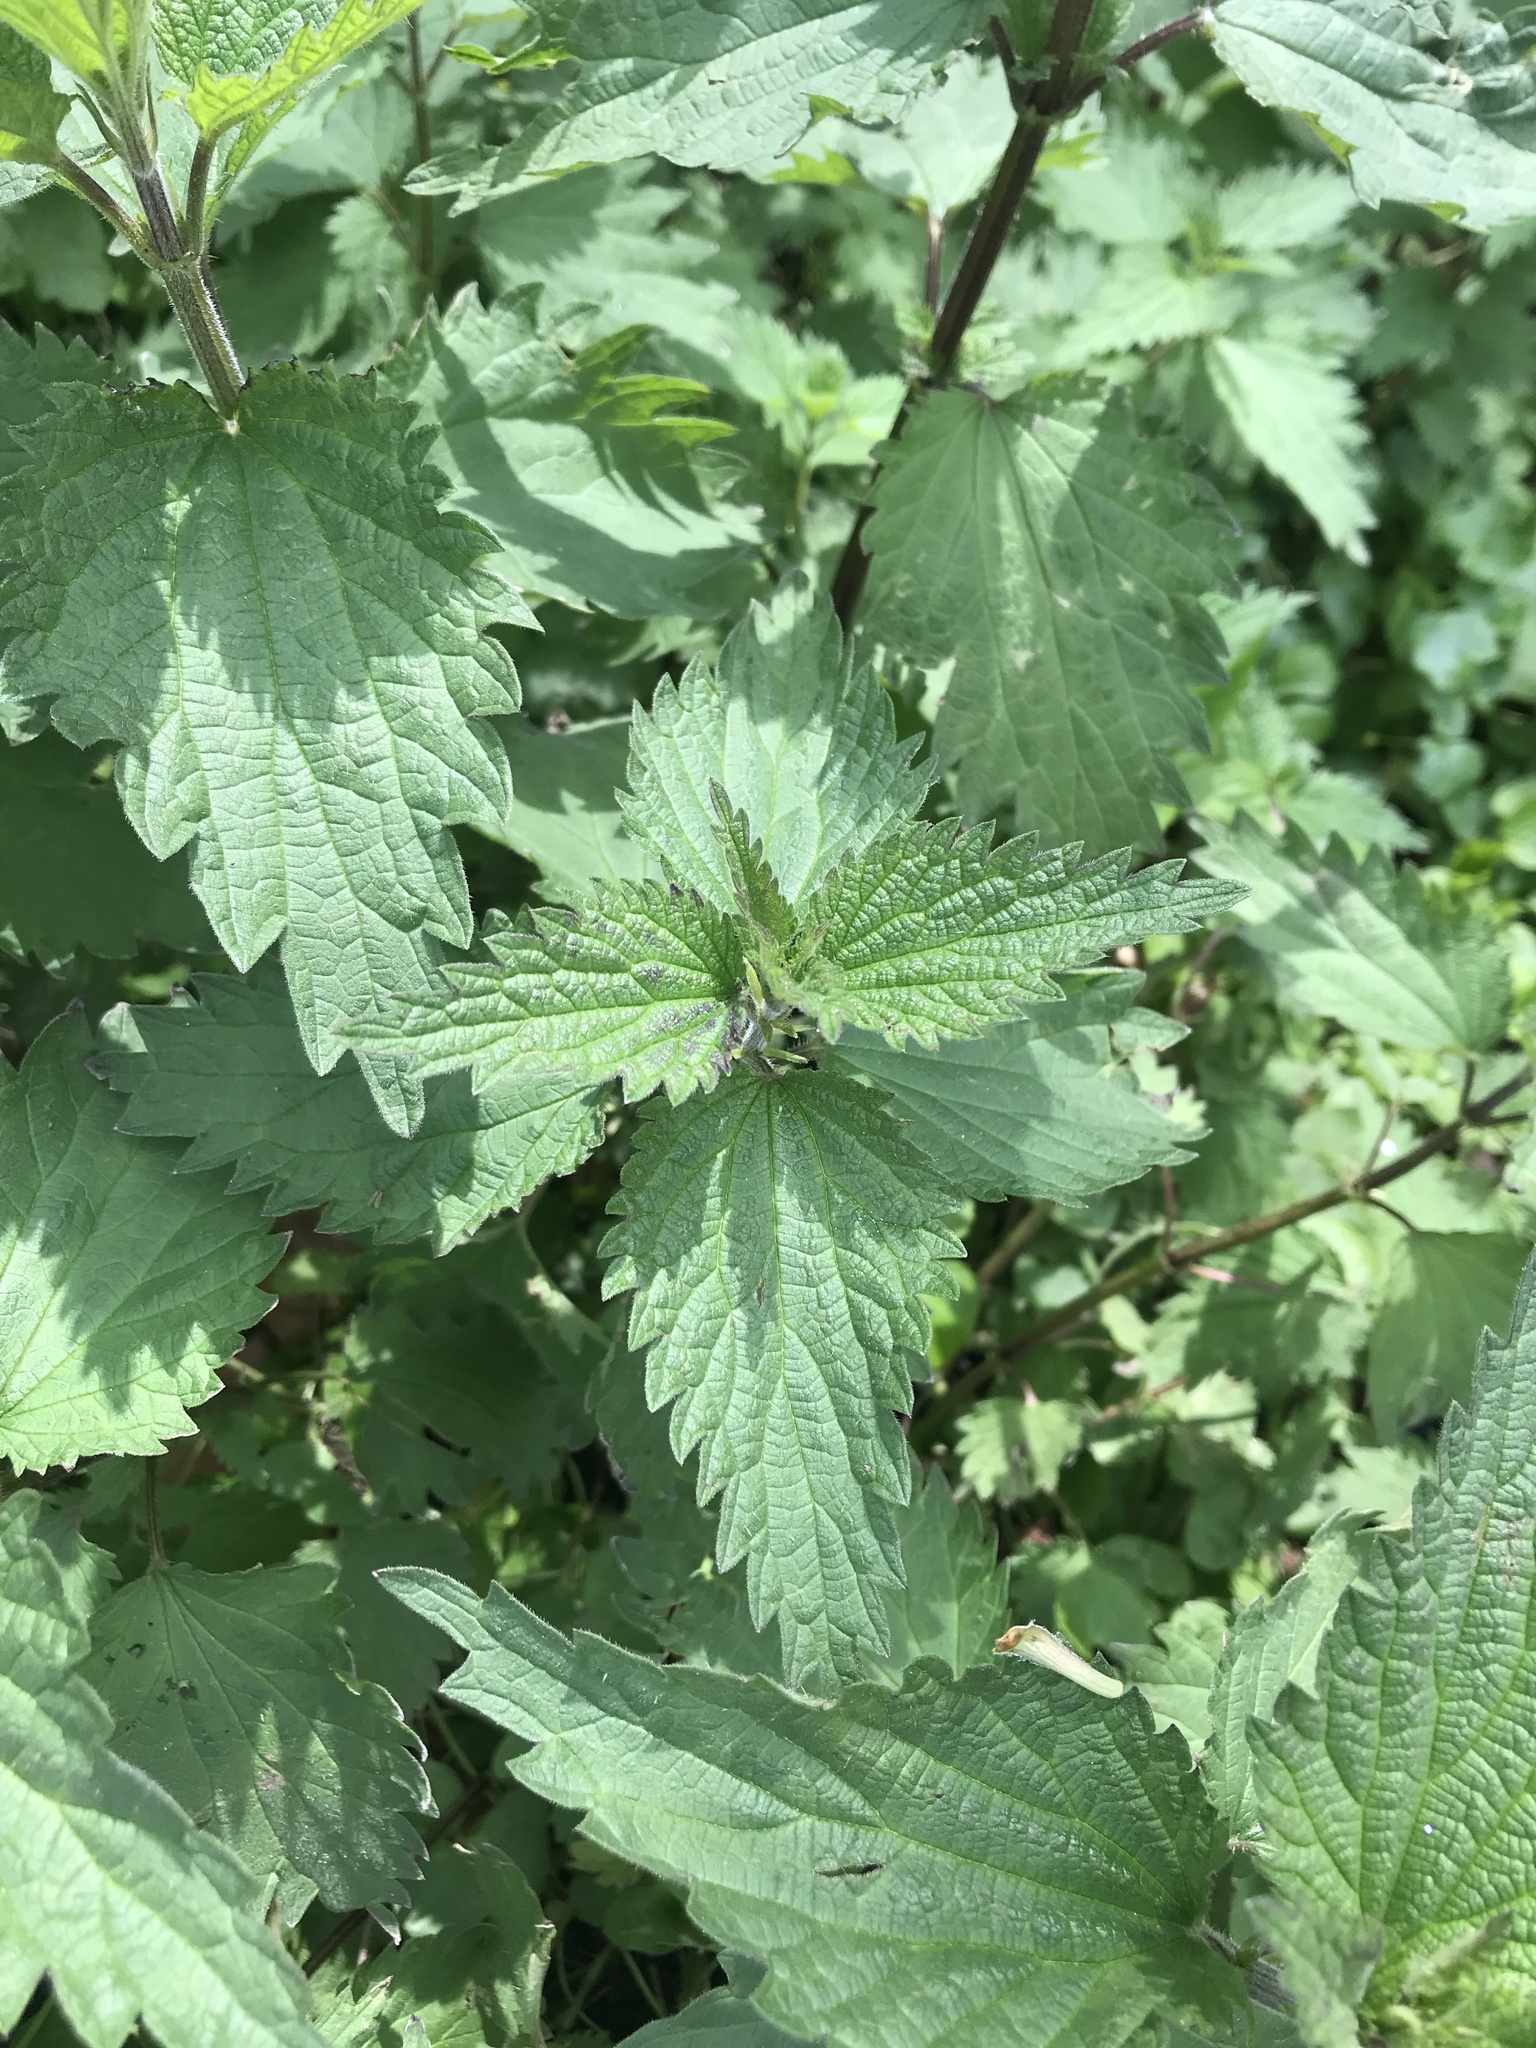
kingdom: Plantae
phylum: Tracheophyta
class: Magnoliopsida
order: Rosales
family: Urticaceae
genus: Urtica
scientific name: Urtica dioica
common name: Common nettle
